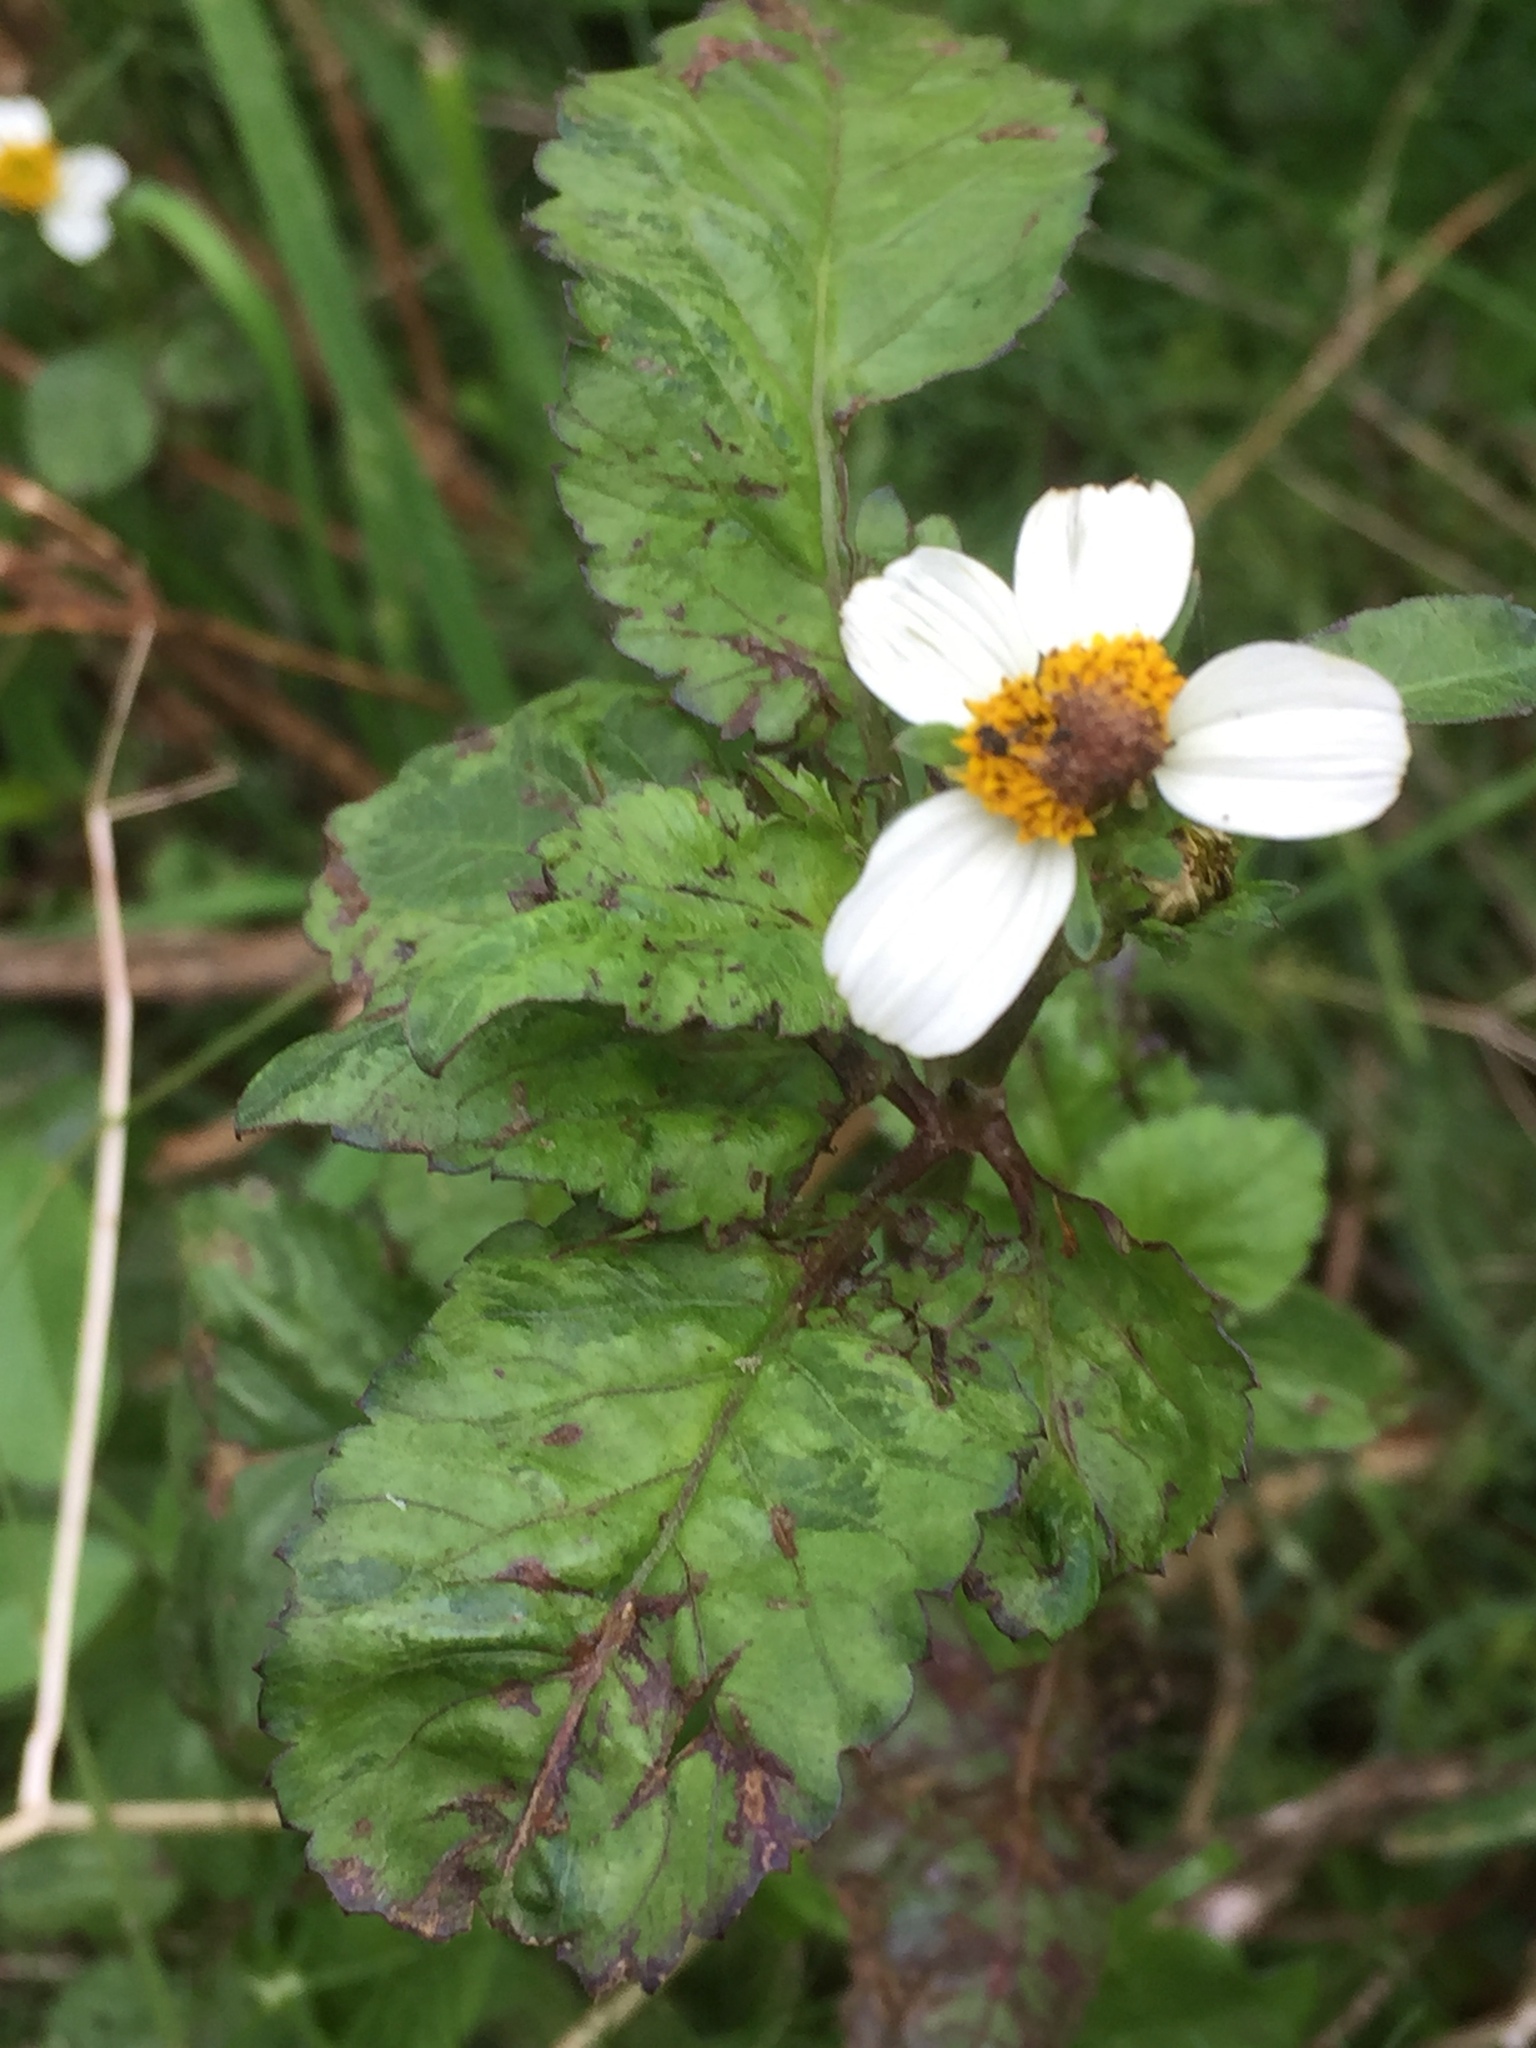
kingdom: Plantae
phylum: Tracheophyta
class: Magnoliopsida
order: Asterales
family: Asteraceae
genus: Bidens
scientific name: Bidens pilosa
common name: Black-jack
